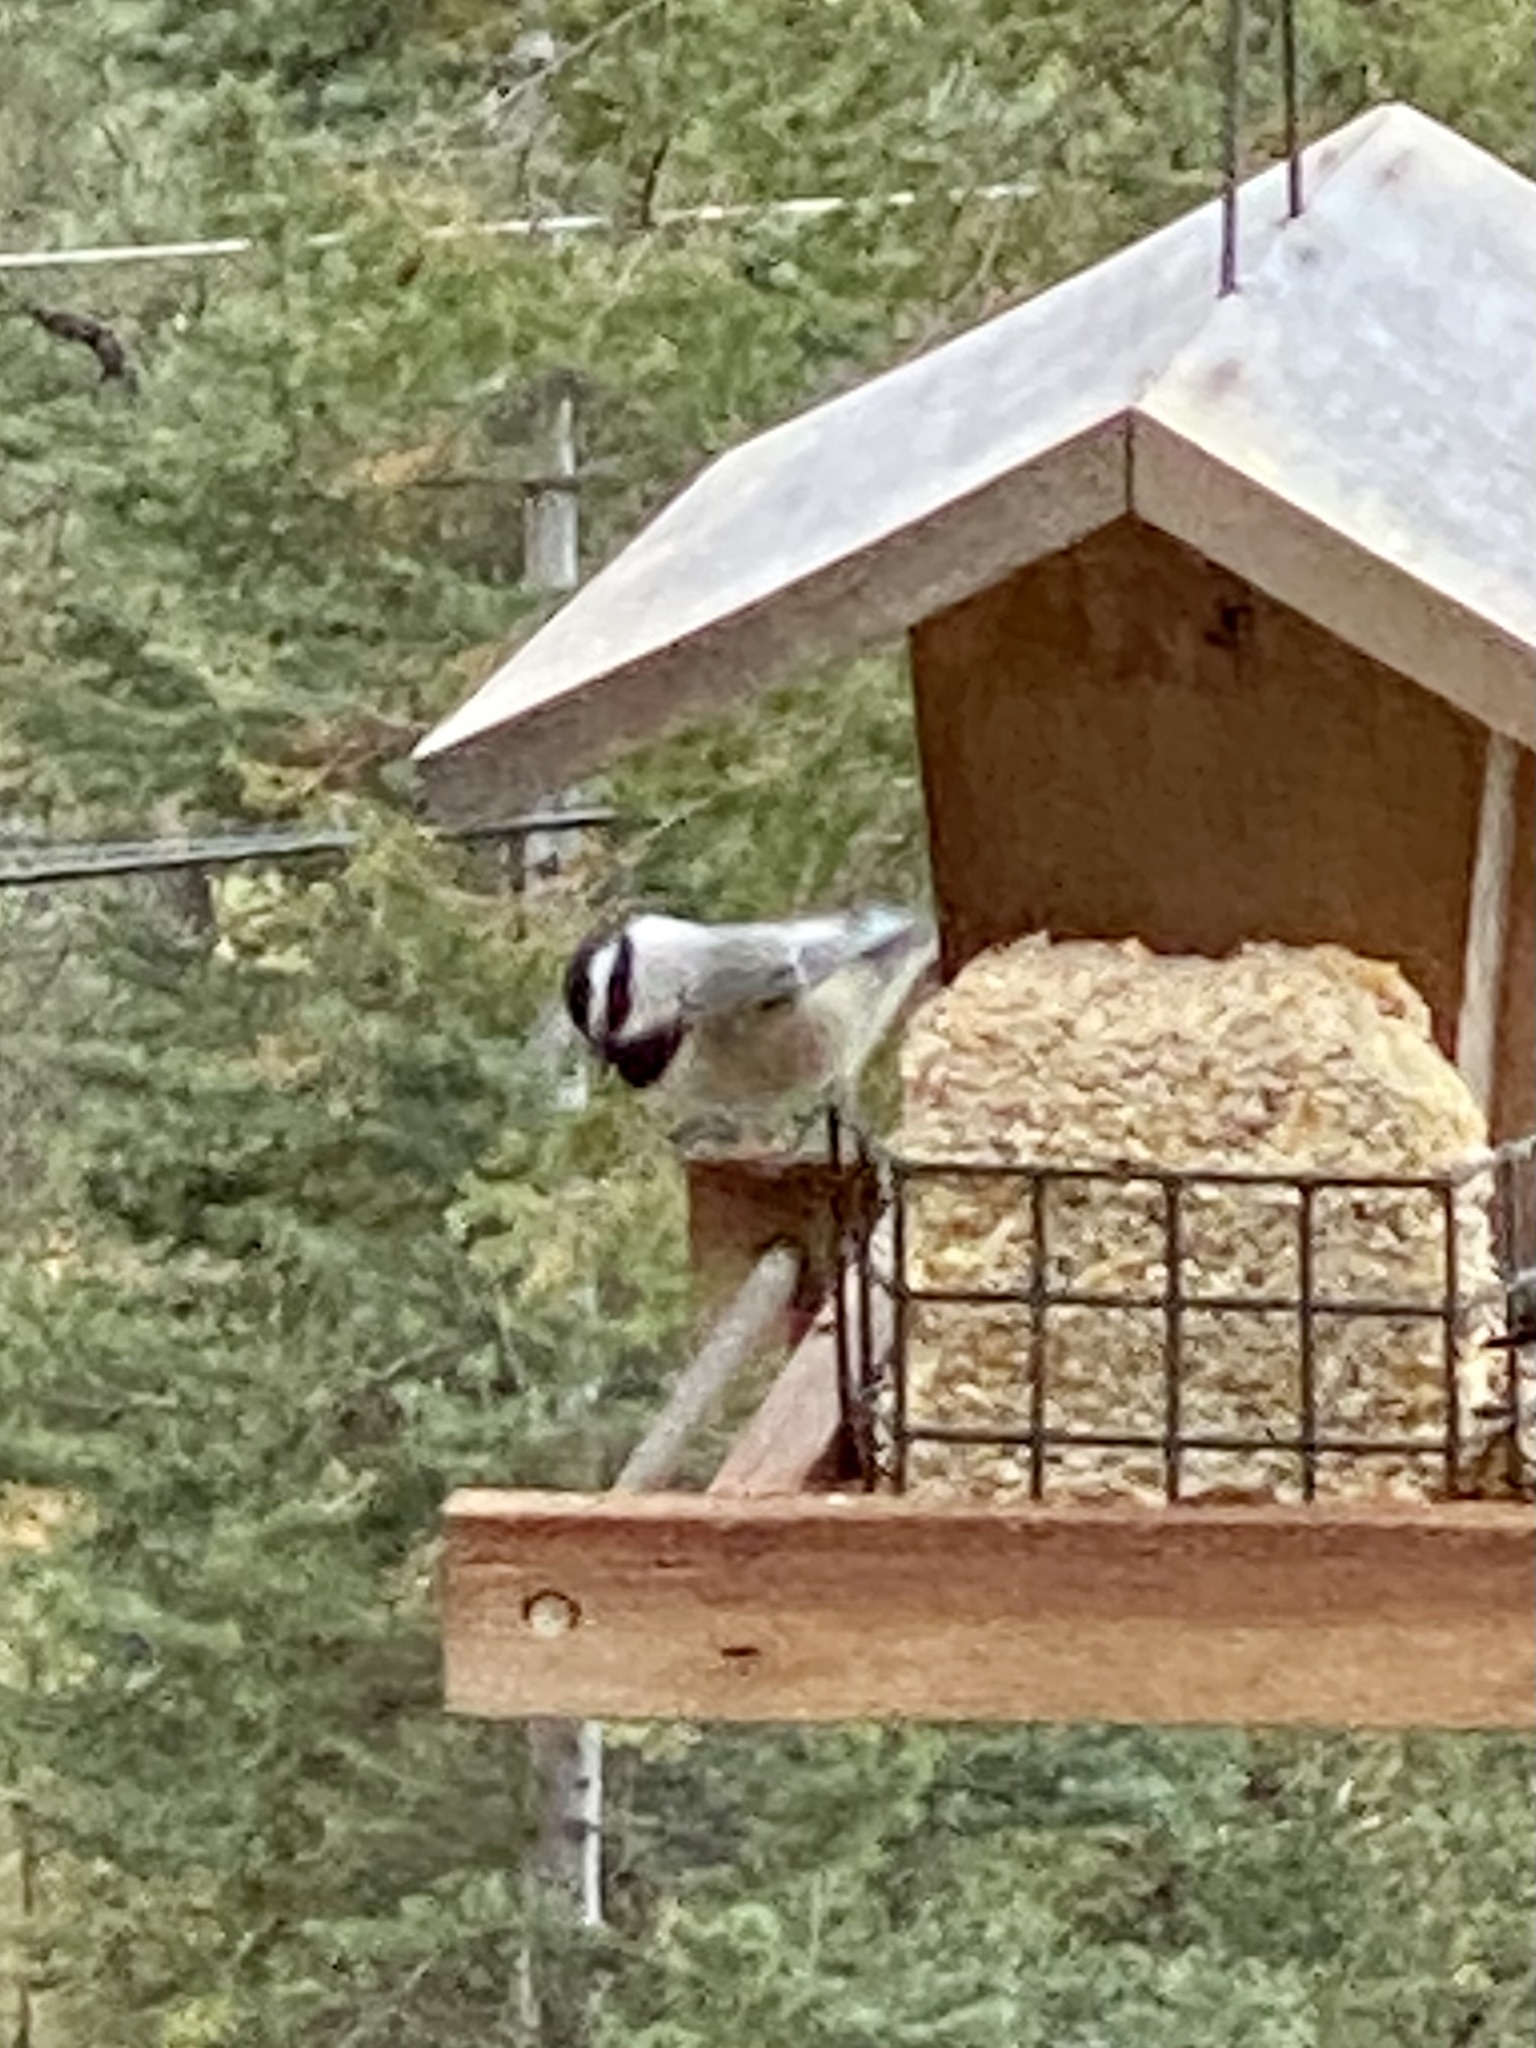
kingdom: Animalia
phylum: Chordata
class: Aves
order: Passeriformes
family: Paridae
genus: Poecile
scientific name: Poecile gambeli
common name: Mountain chickadee
